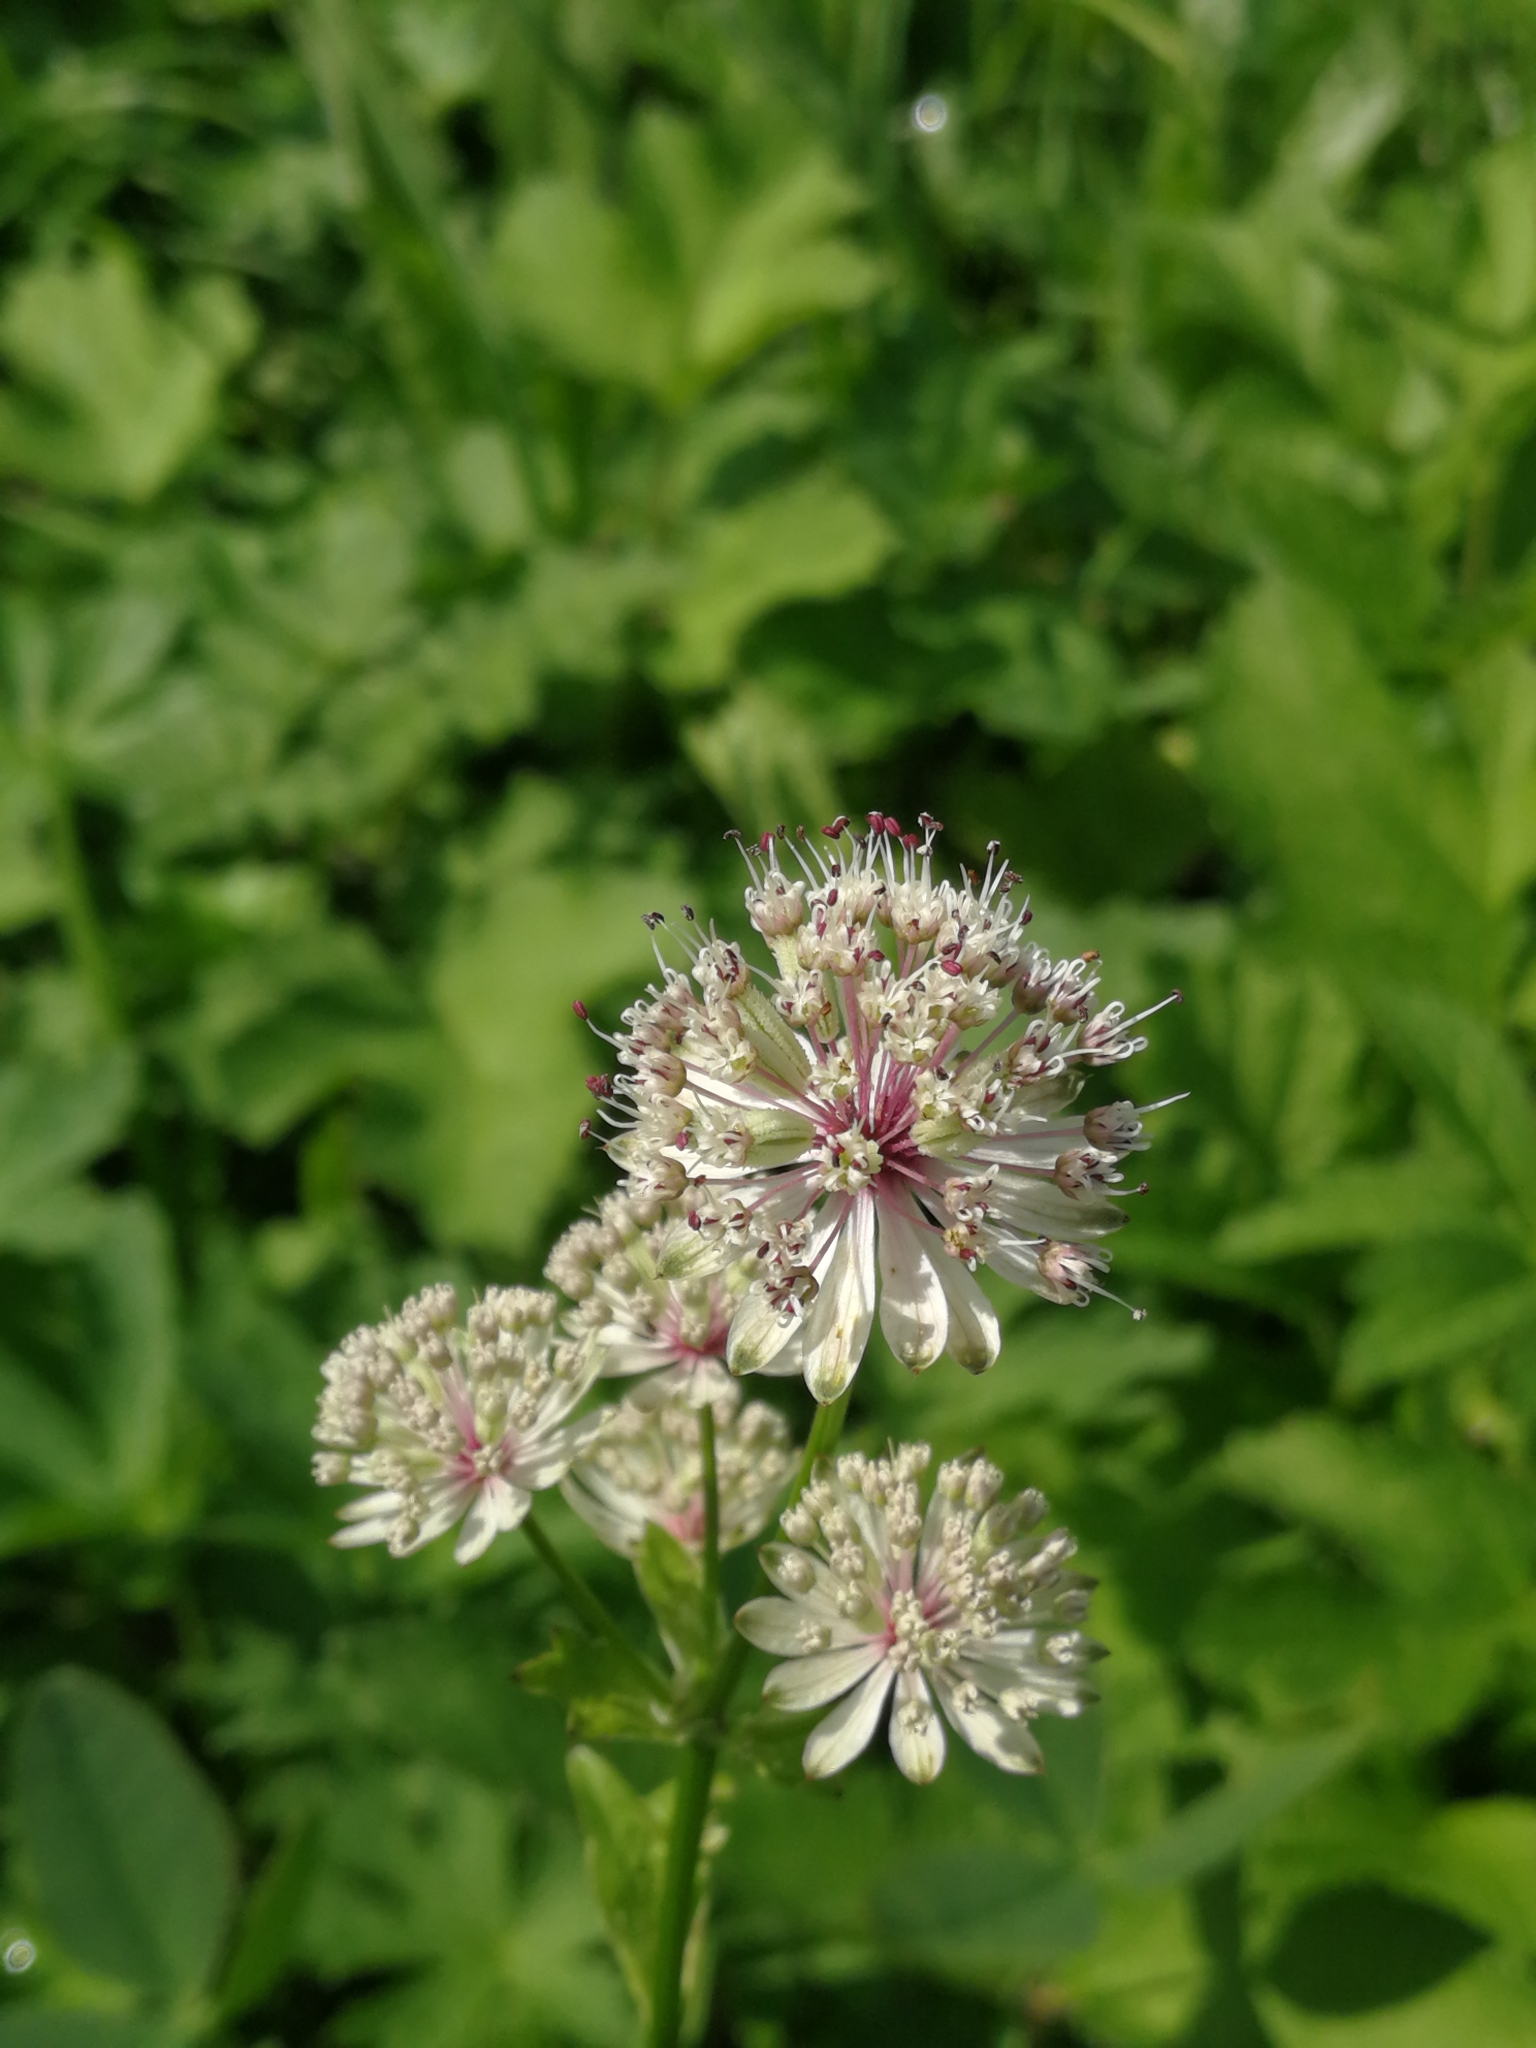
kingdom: Plantae
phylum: Tracheophyta
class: Magnoliopsida
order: Apiales
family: Apiaceae
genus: Astrantia
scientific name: Astrantia major
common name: Greater masterwort
